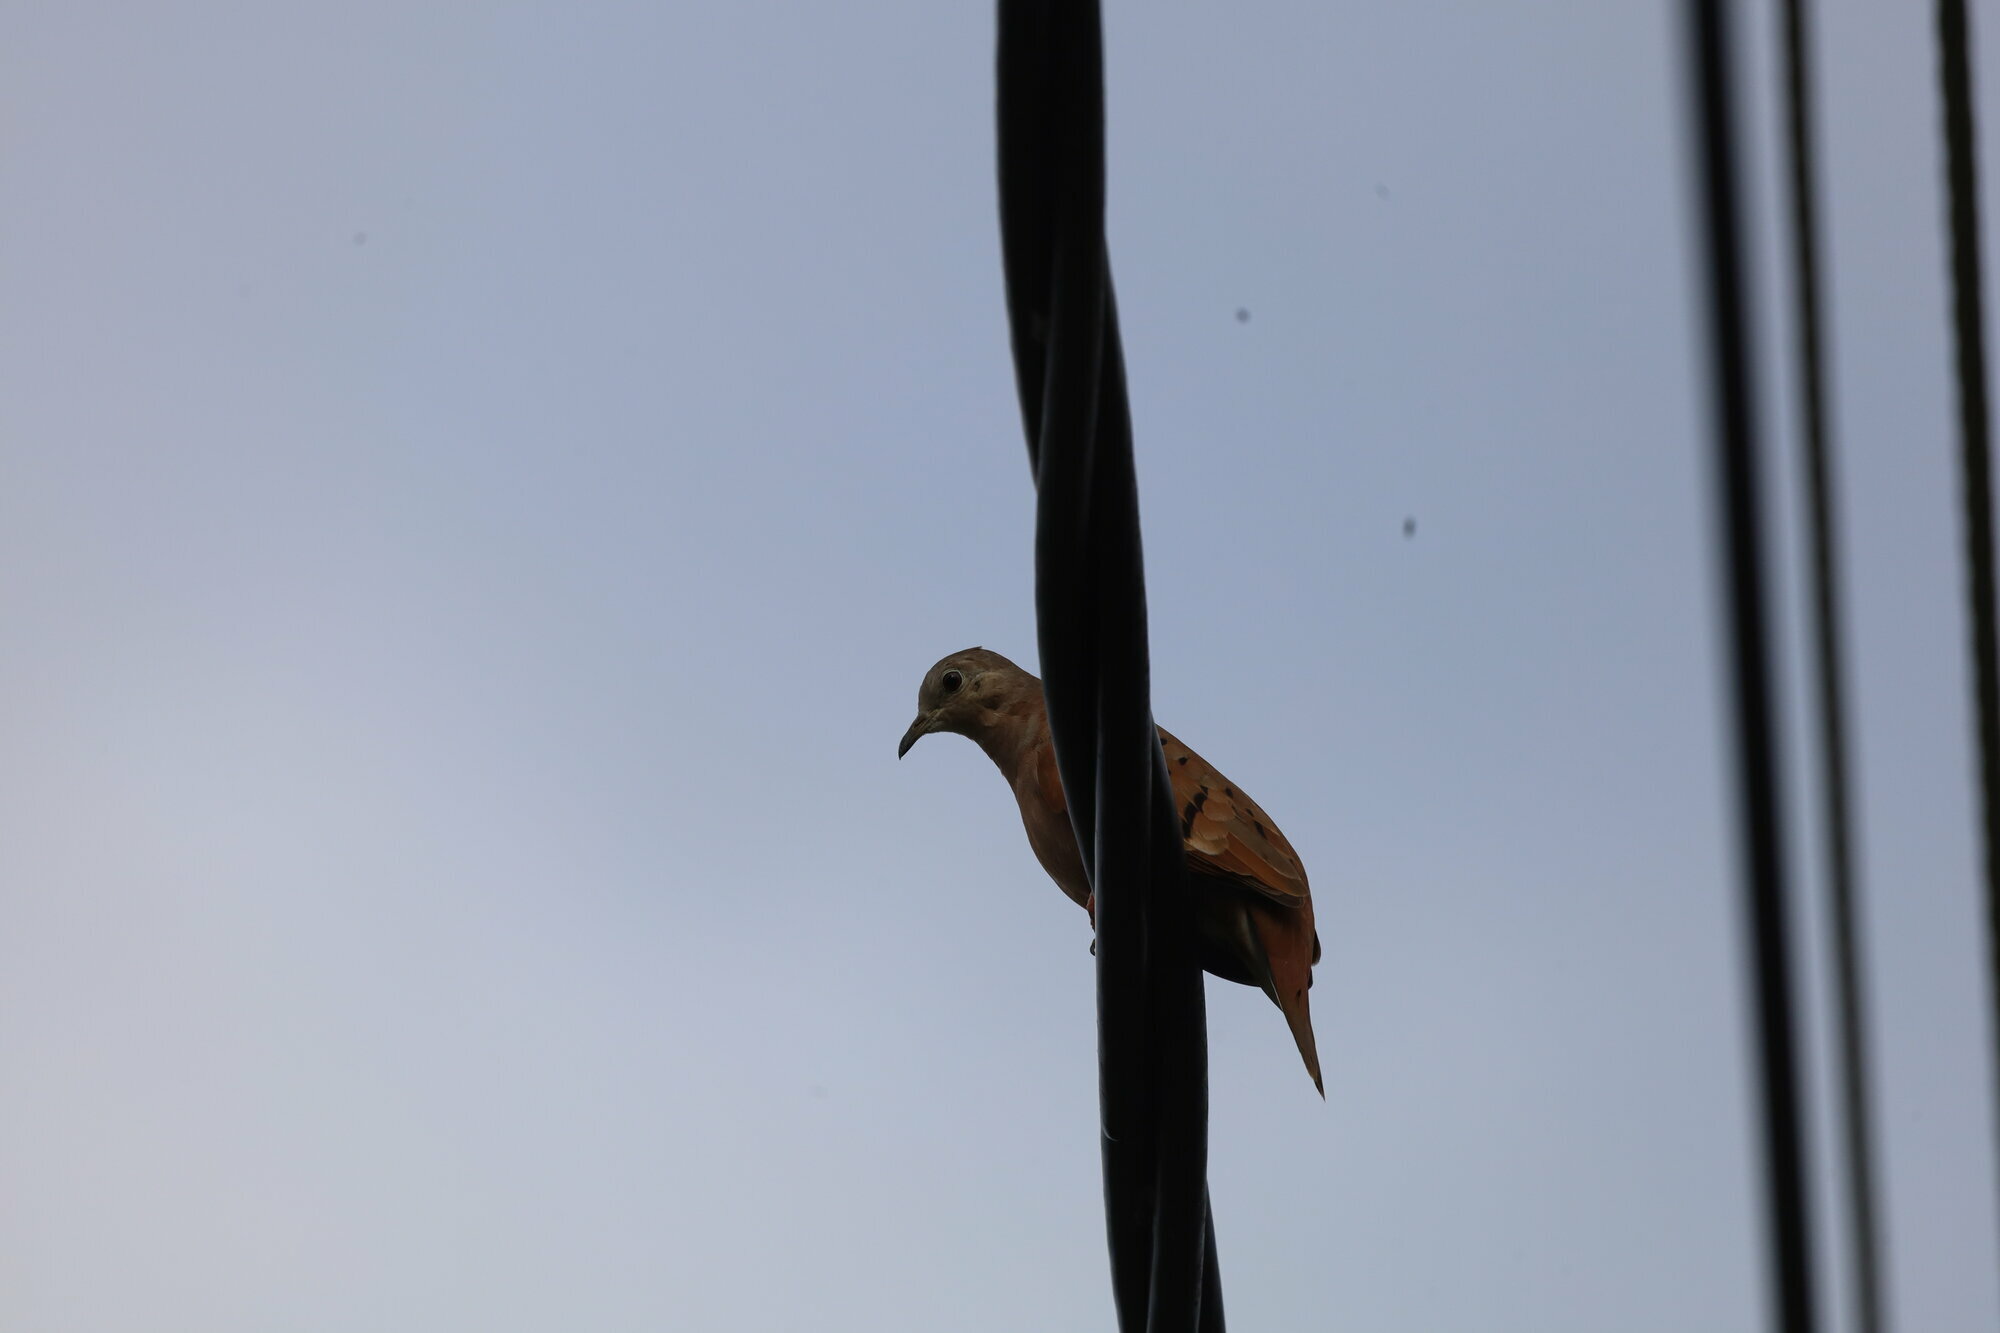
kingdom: Animalia
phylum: Chordata
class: Aves
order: Columbiformes
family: Columbidae
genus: Columbina
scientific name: Columbina talpacoti
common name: Ruddy ground dove
